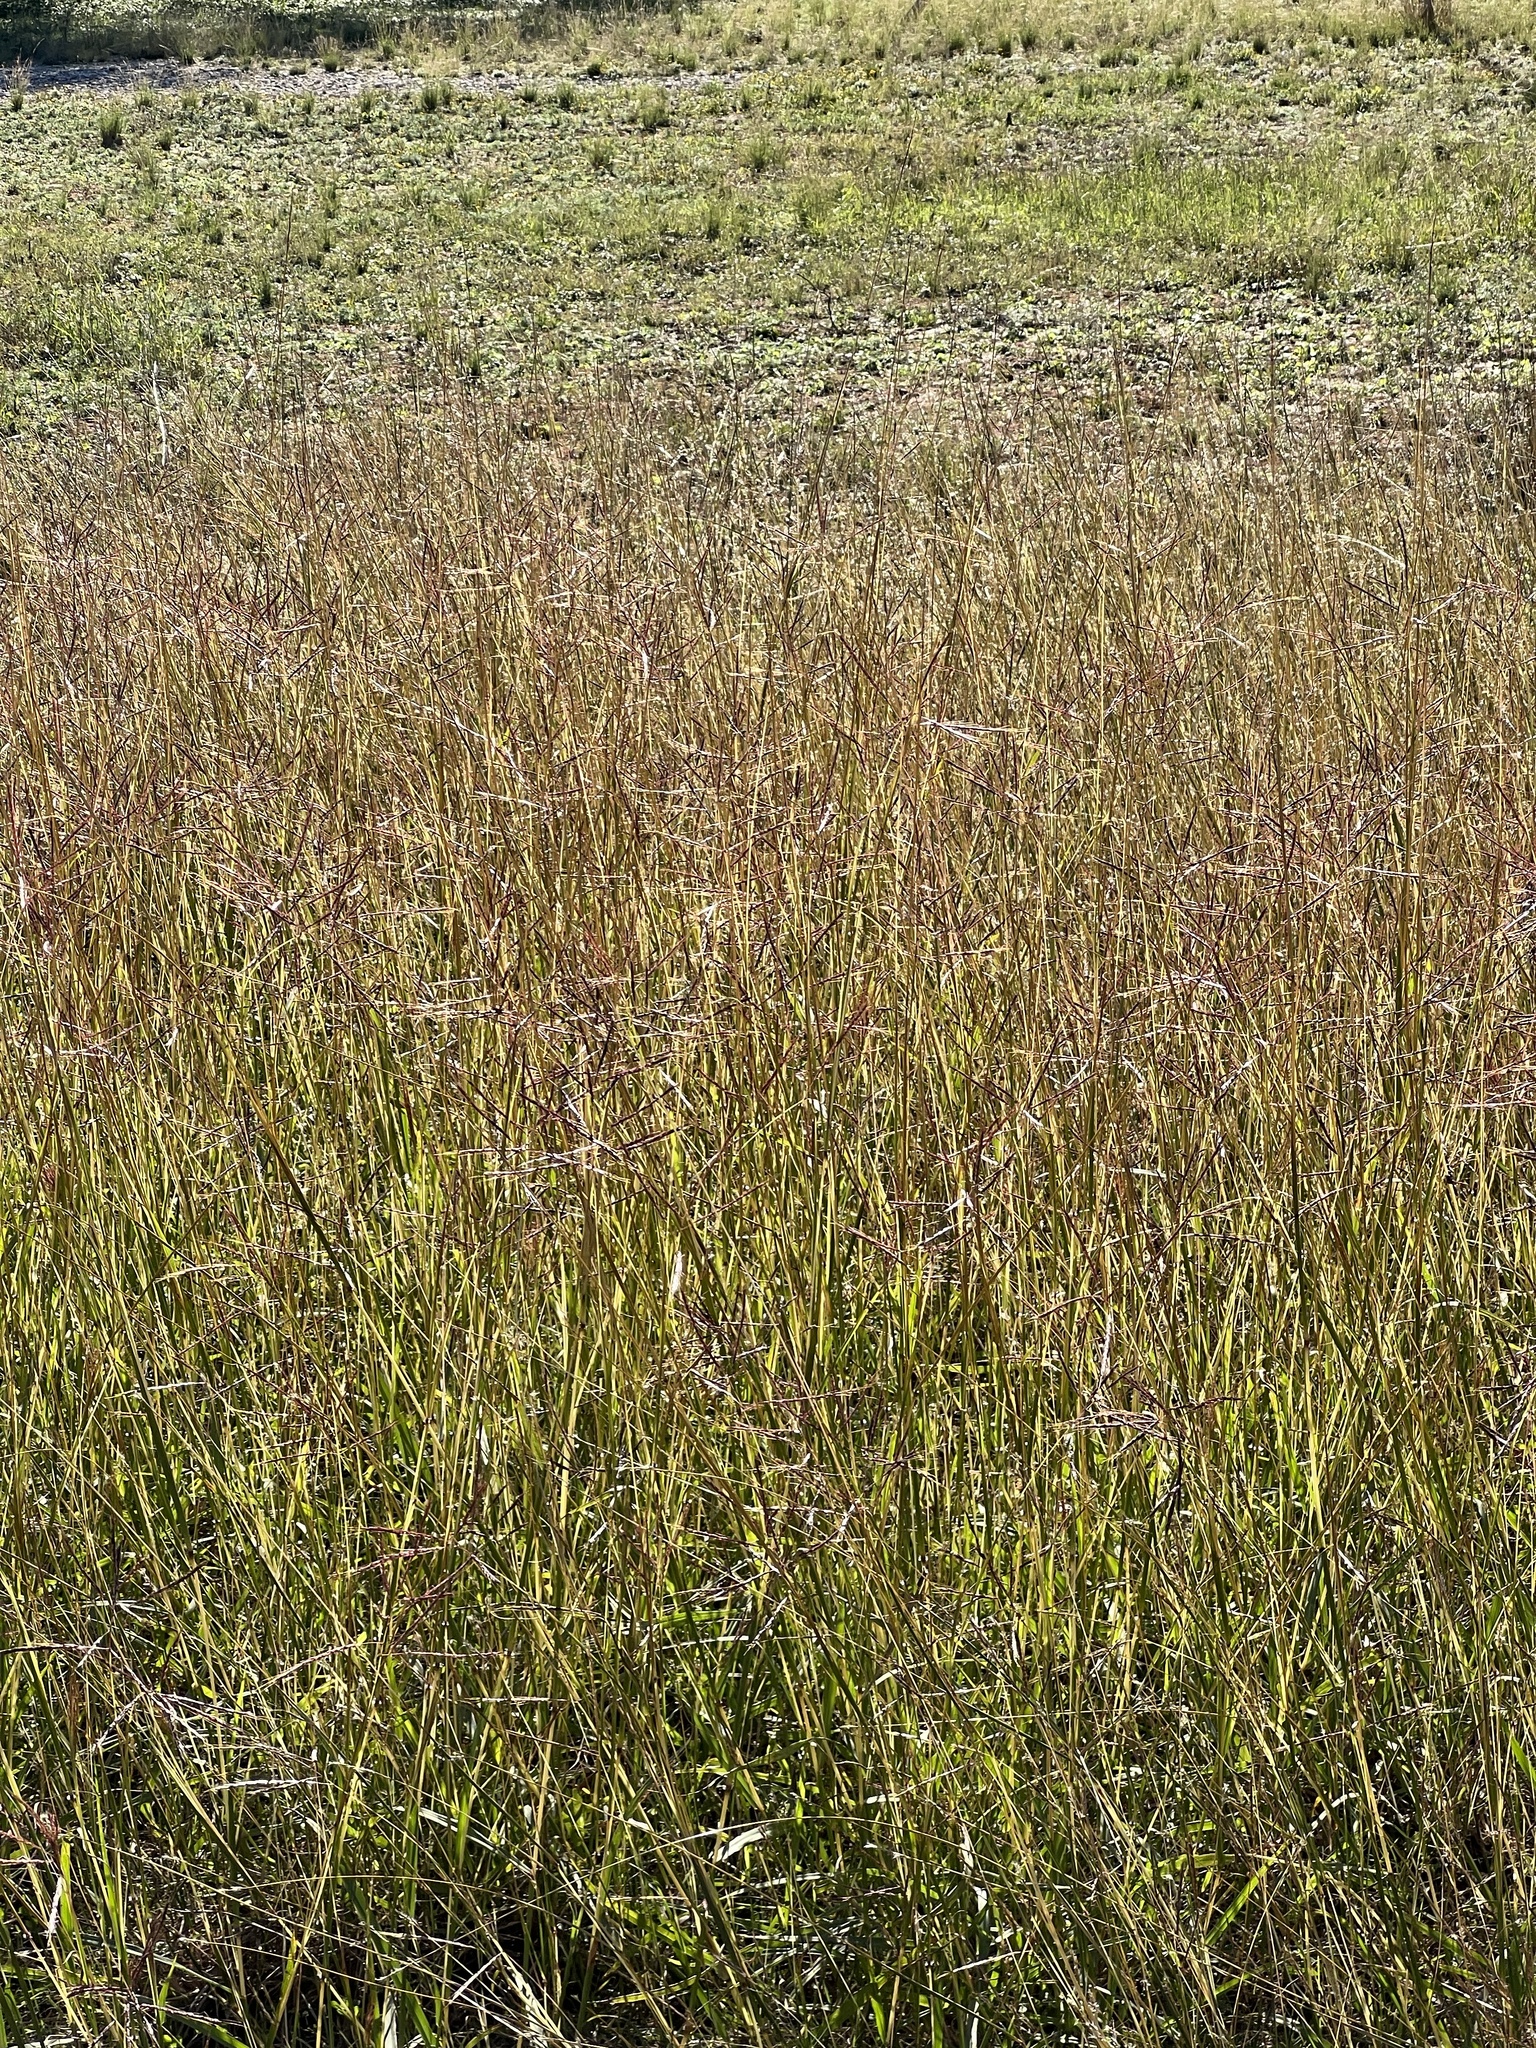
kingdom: Plantae
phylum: Tracheophyta
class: Liliopsida
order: Poales
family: Poaceae
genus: Bothriochloa
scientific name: Bothriochloa ischaemum
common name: Yellow bluestem
